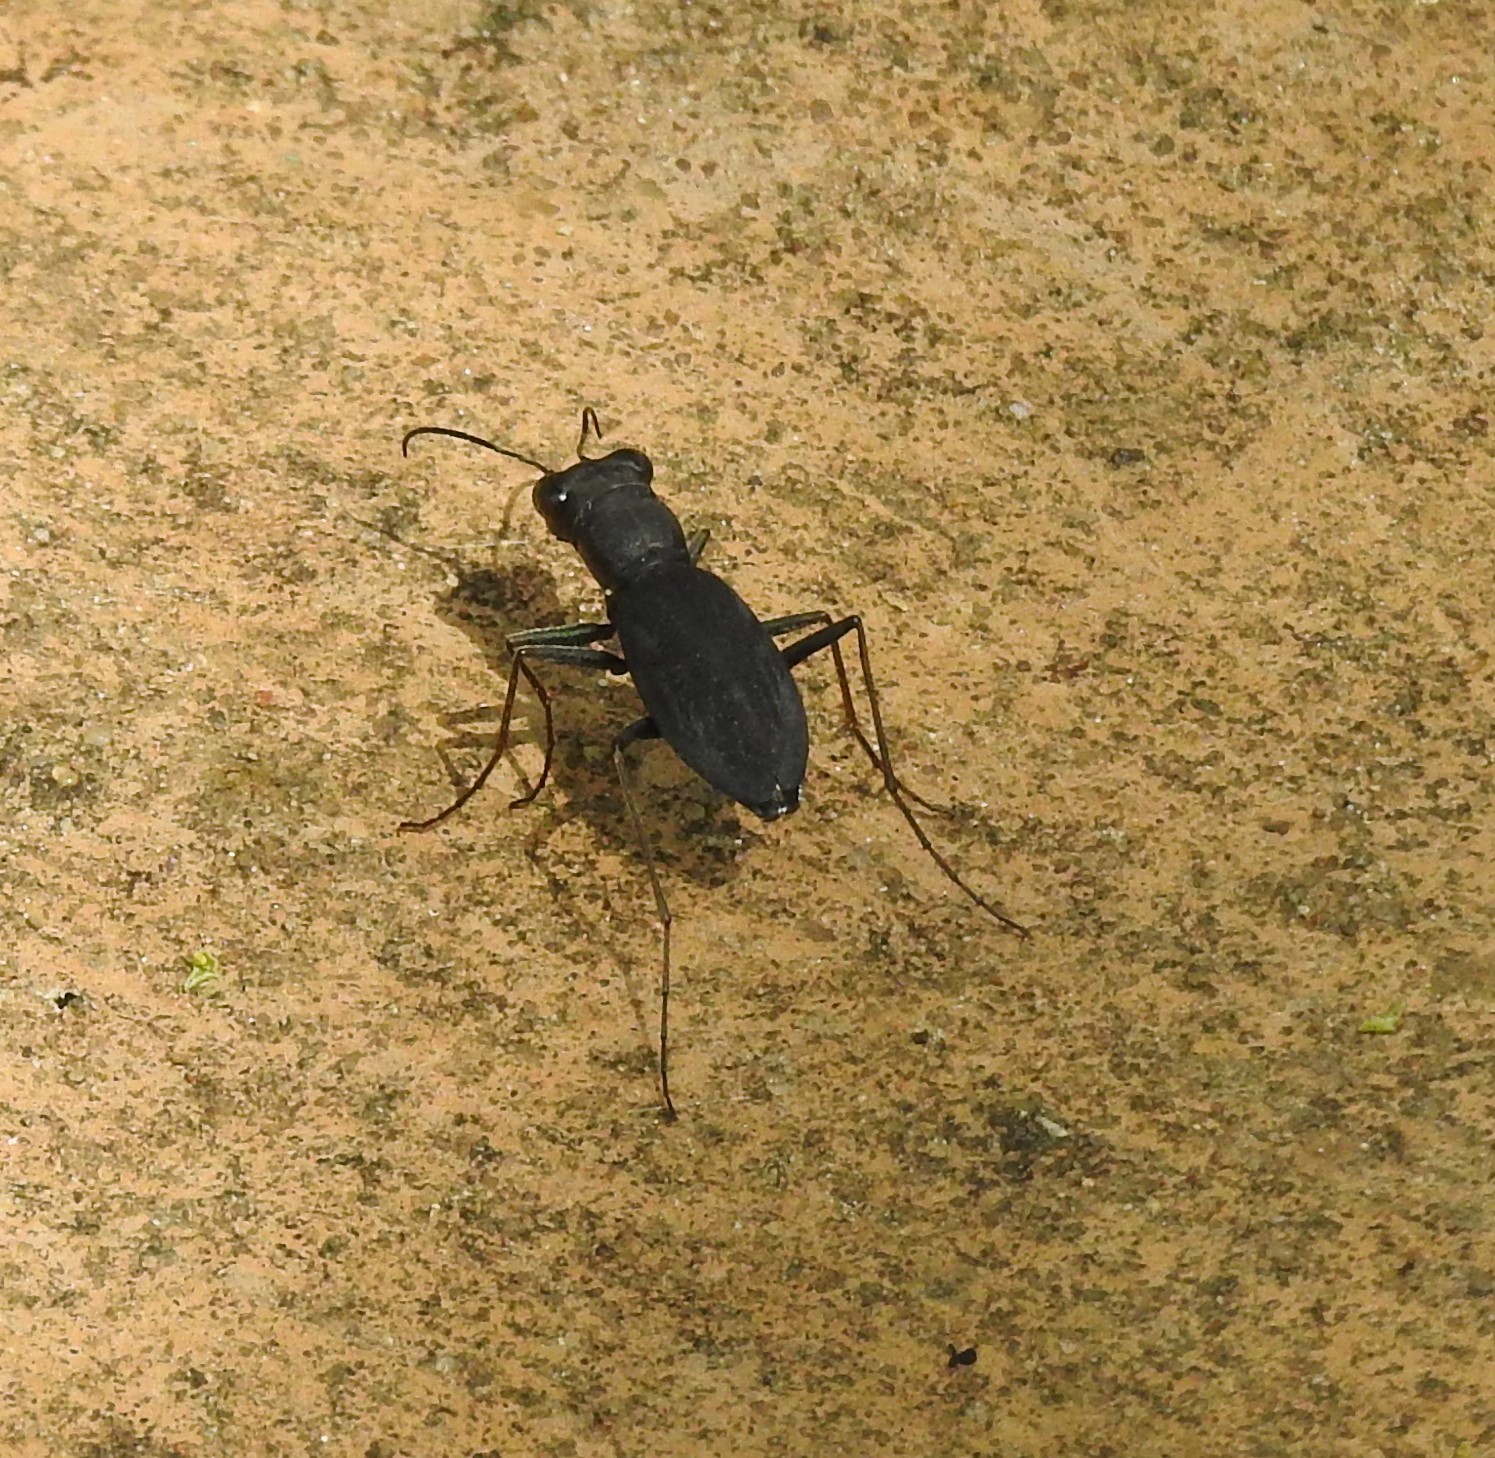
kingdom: Animalia
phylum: Arthropoda
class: Insecta
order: Coleoptera
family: Carabidae
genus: Dromochorus
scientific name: Dromochorus pilatei
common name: Cajun dromo tiger beetle
